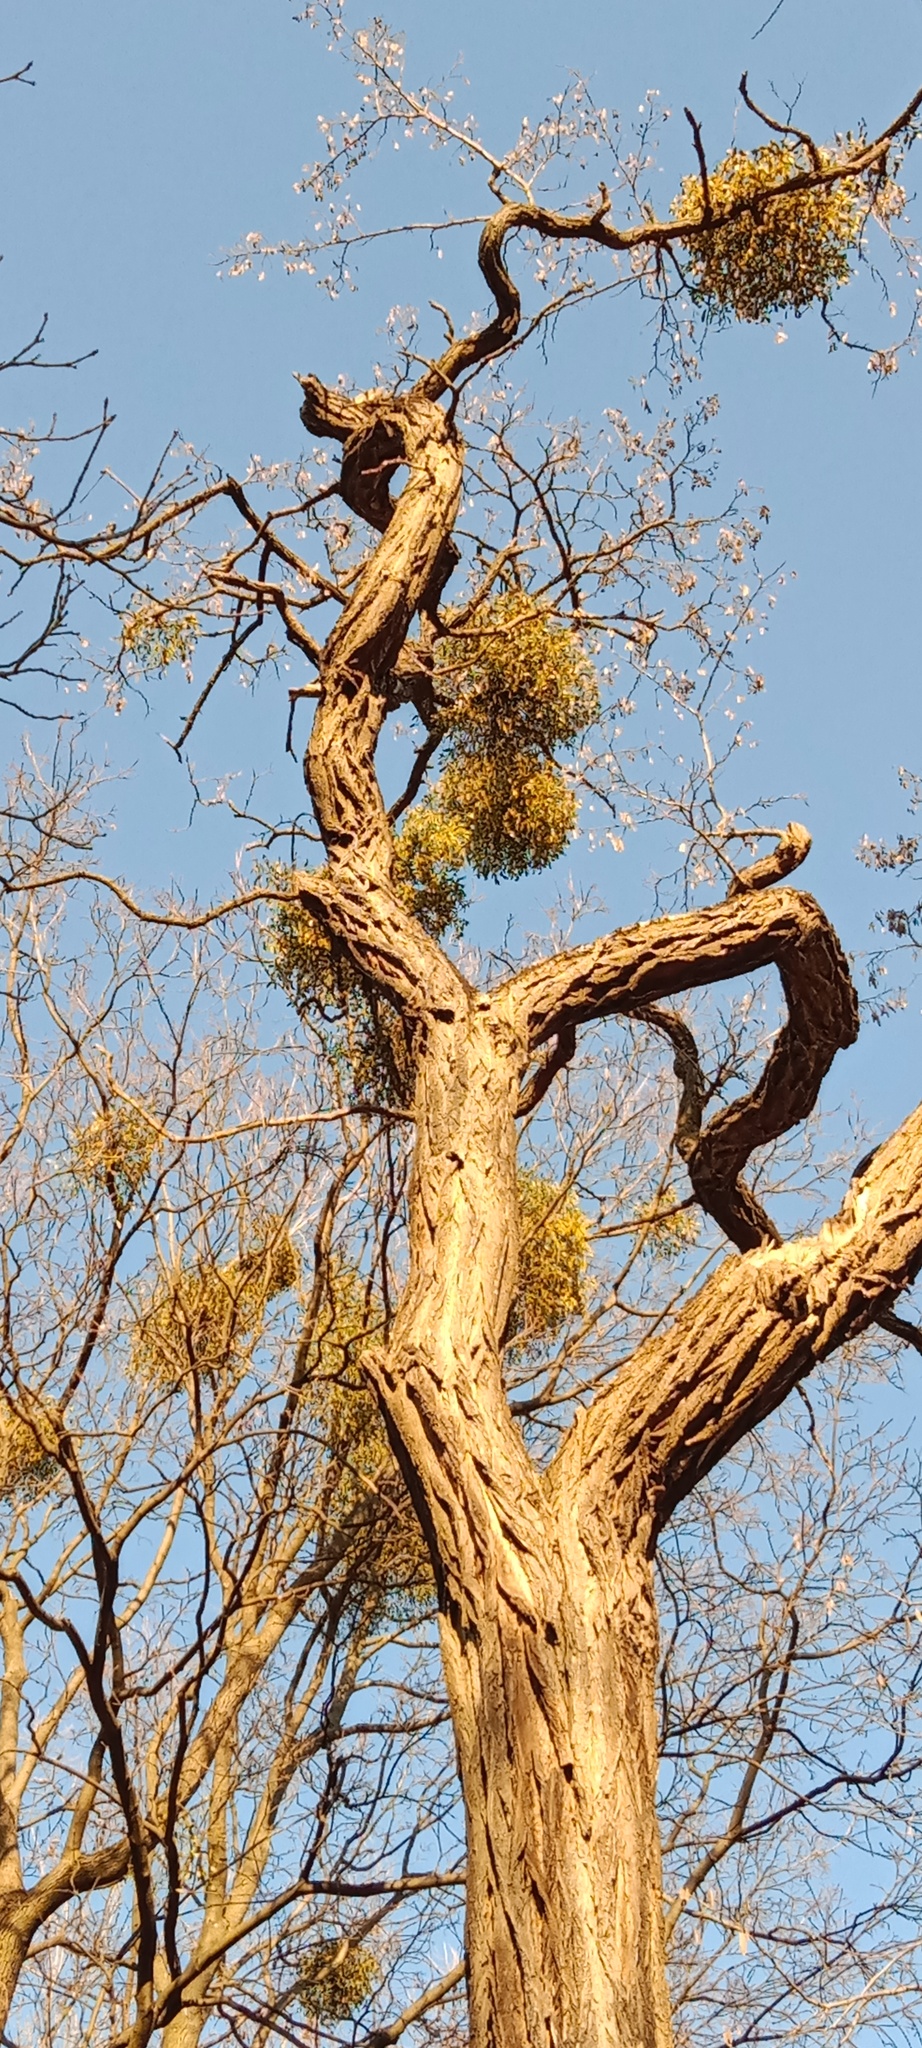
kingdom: Plantae
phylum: Tracheophyta
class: Magnoliopsida
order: Santalales
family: Viscaceae
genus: Viscum
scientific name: Viscum album
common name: Mistletoe
